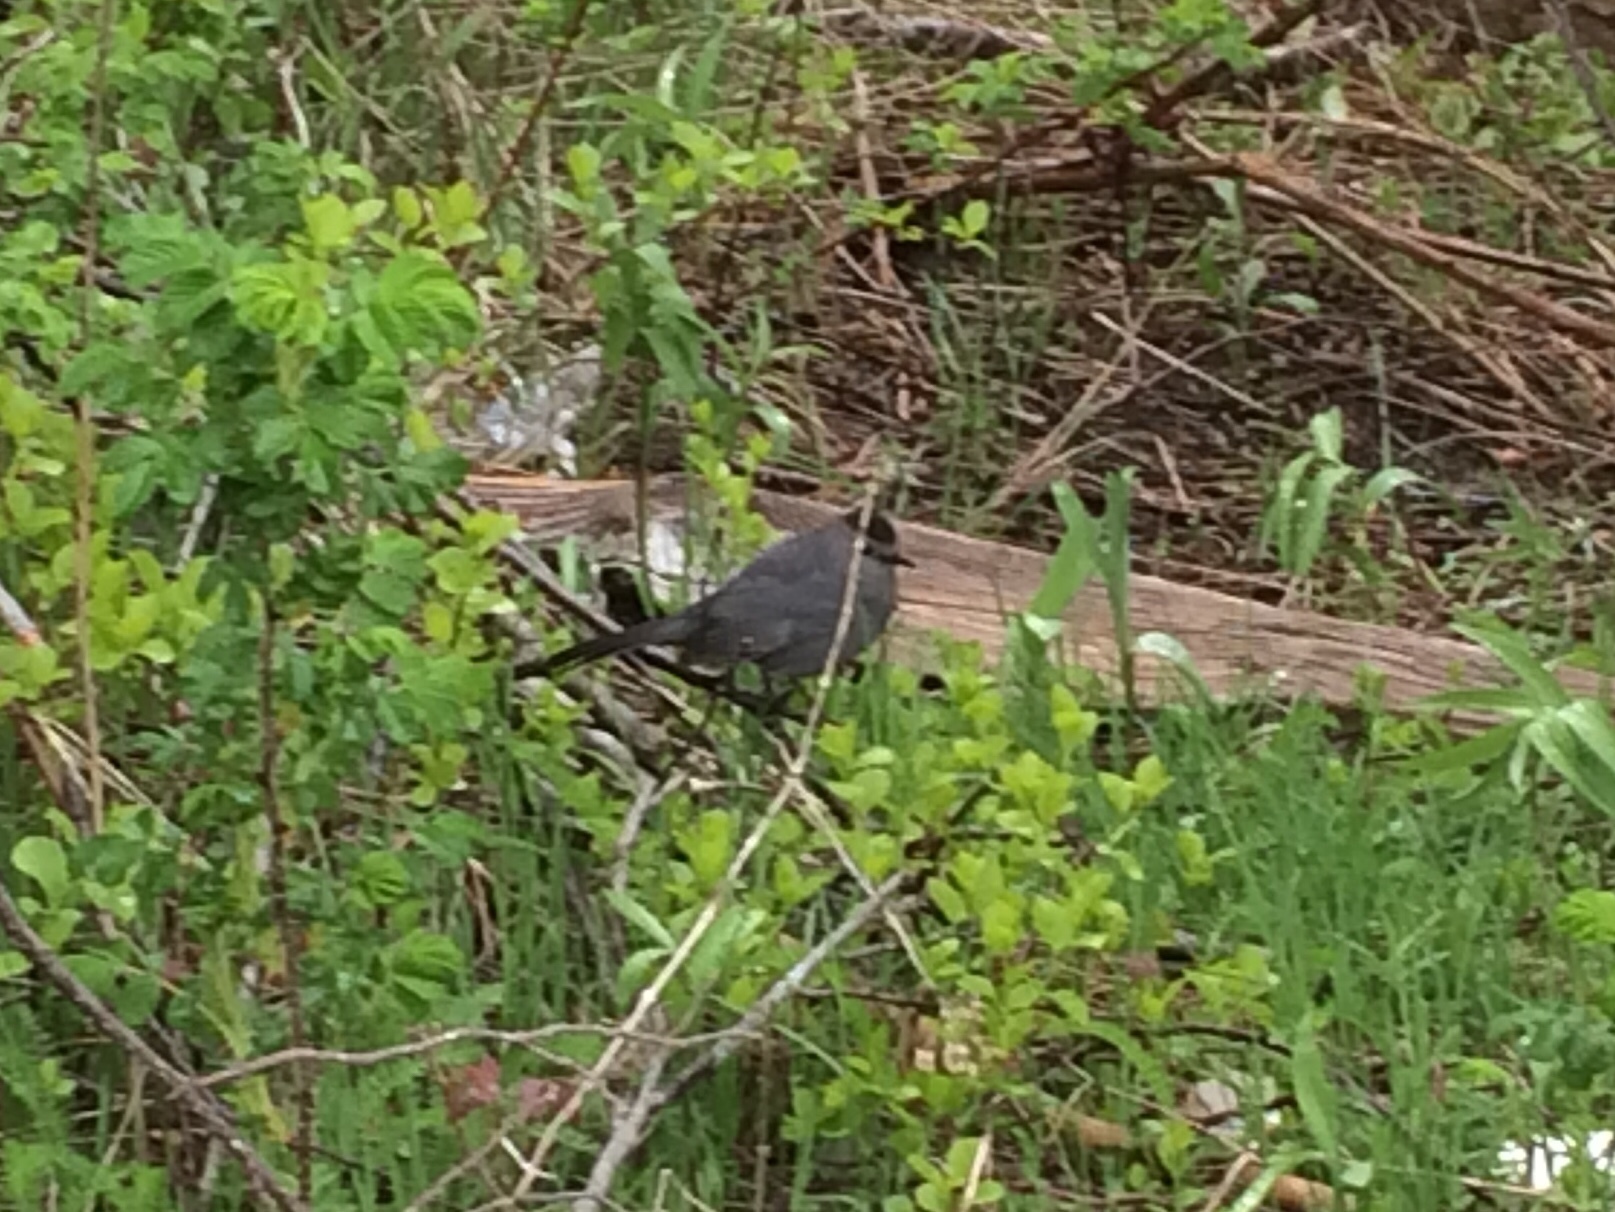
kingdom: Animalia
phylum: Chordata
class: Aves
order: Passeriformes
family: Mimidae
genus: Dumetella
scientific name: Dumetella carolinensis
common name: Gray catbird
